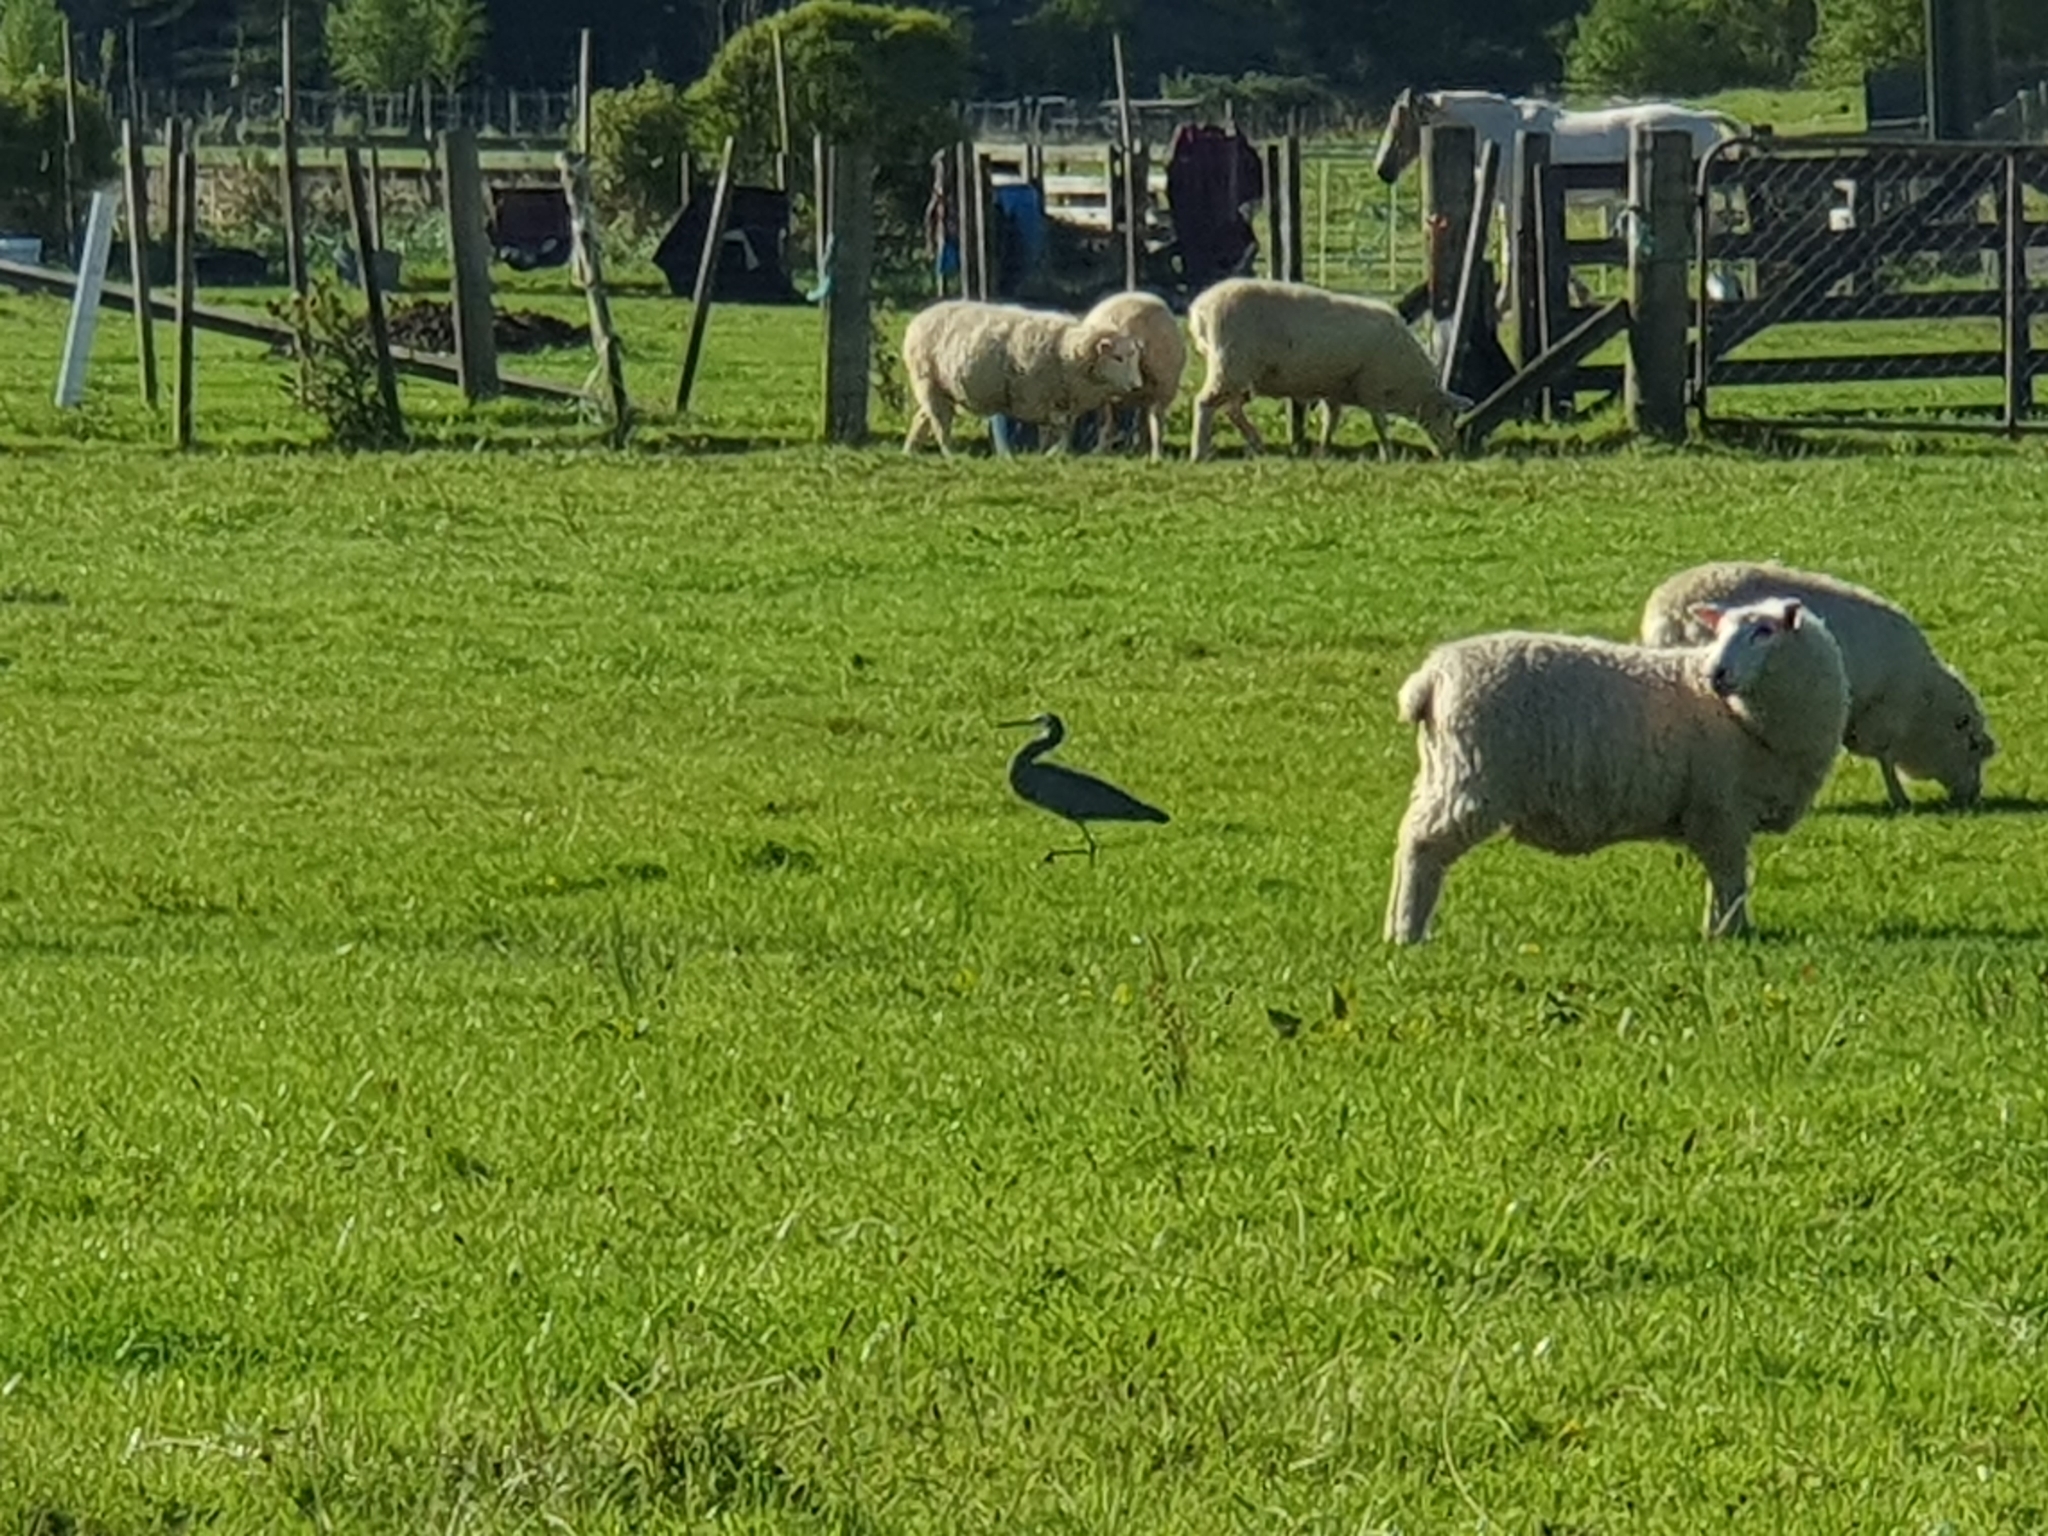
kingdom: Animalia
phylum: Chordata
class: Aves
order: Pelecaniformes
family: Ardeidae
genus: Egretta
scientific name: Egretta novaehollandiae
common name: White-faced heron
